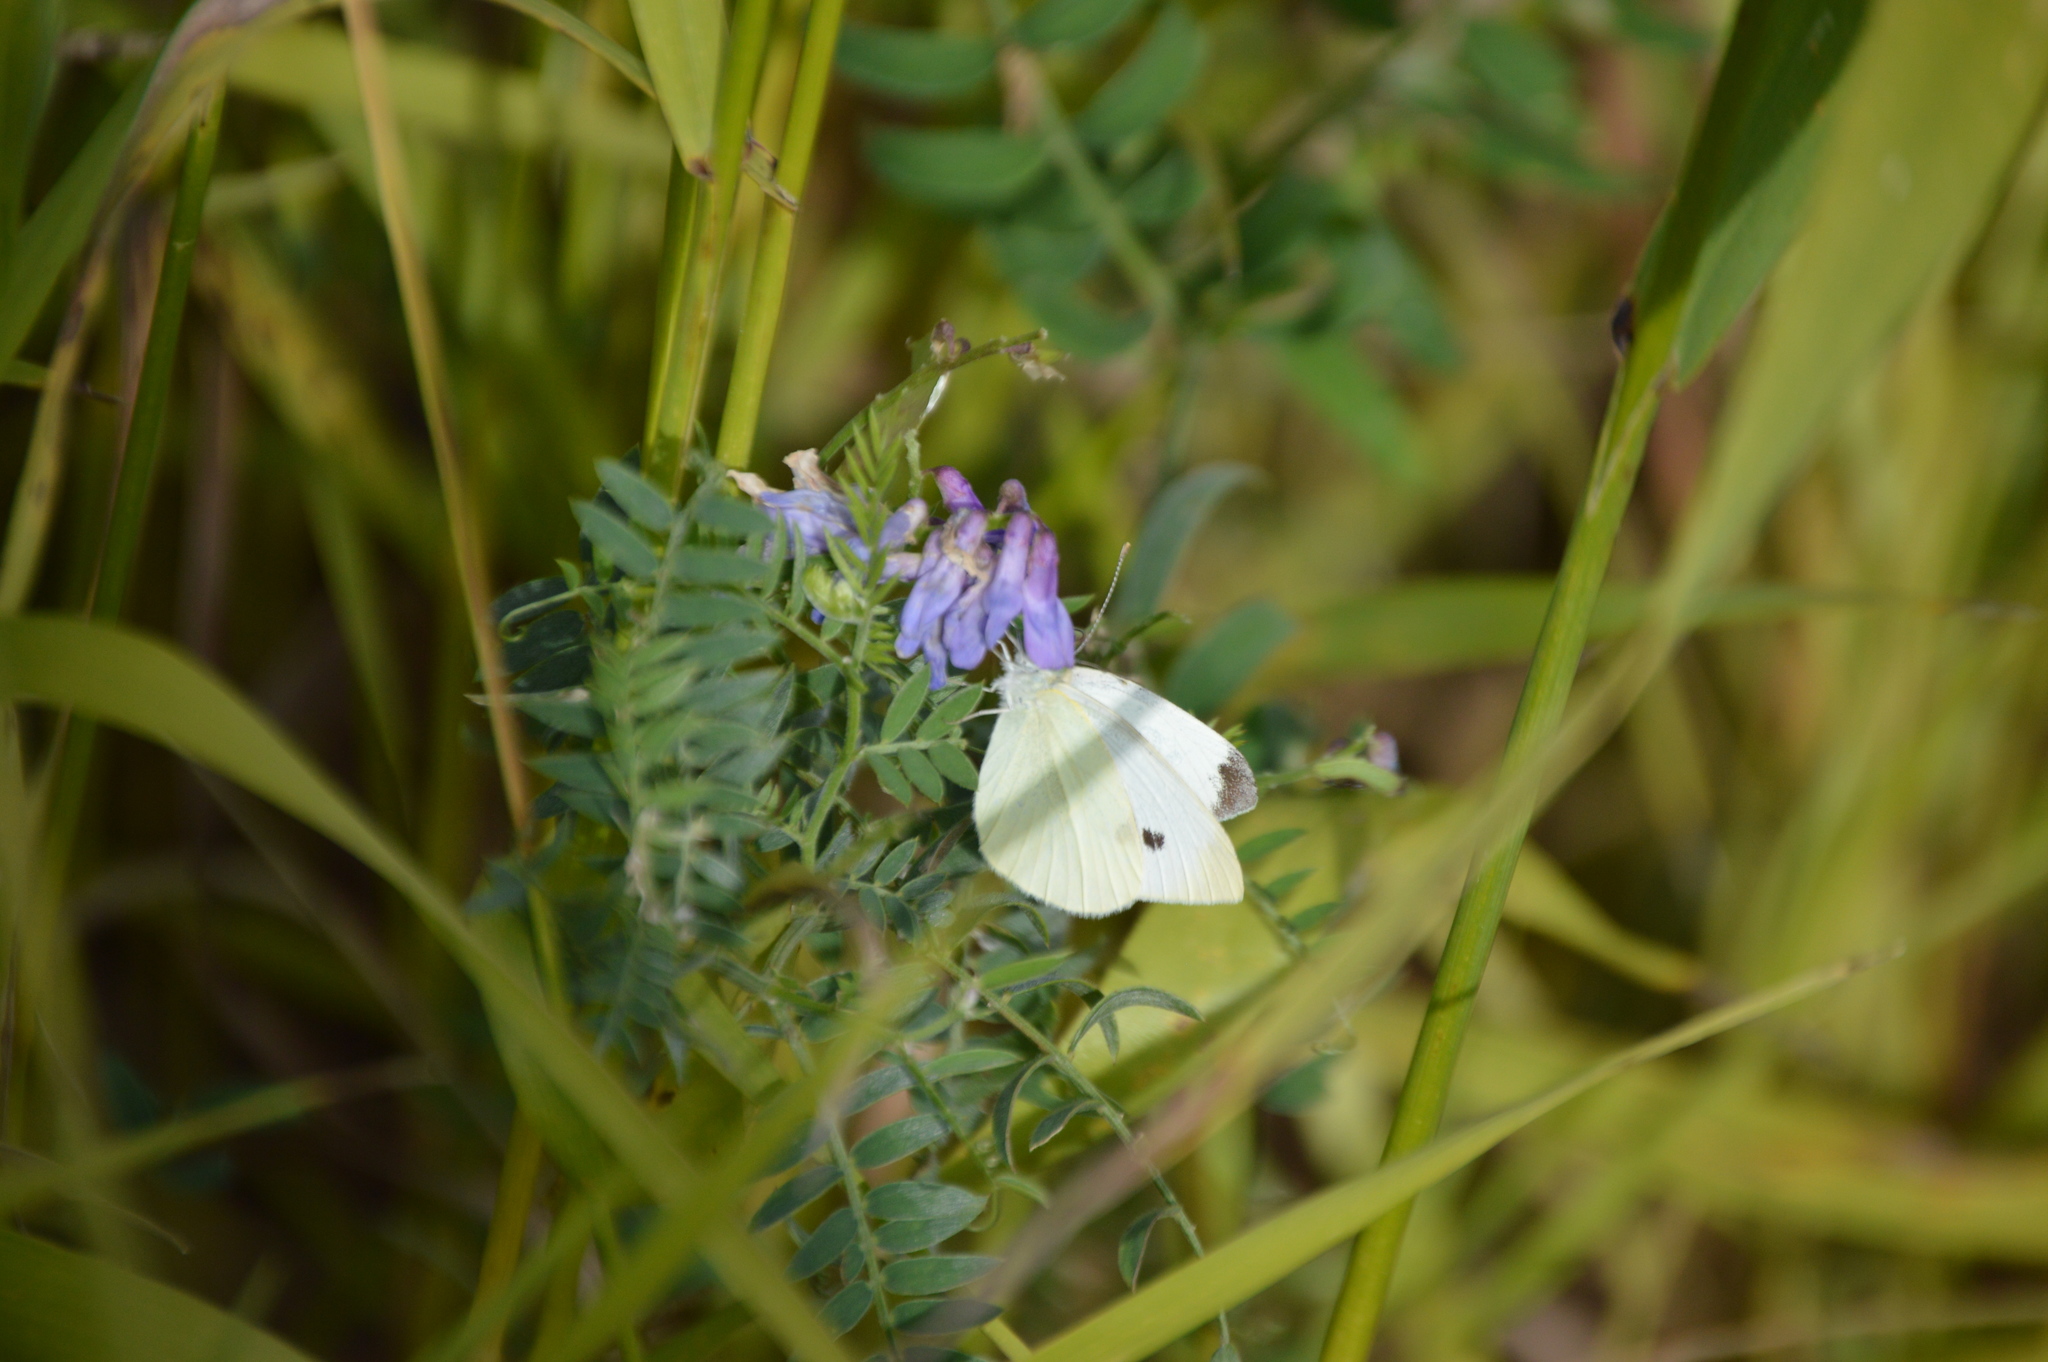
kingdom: Animalia
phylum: Arthropoda
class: Insecta
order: Lepidoptera
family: Pieridae
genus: Pieris
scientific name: Pieris rapae
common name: Small white
